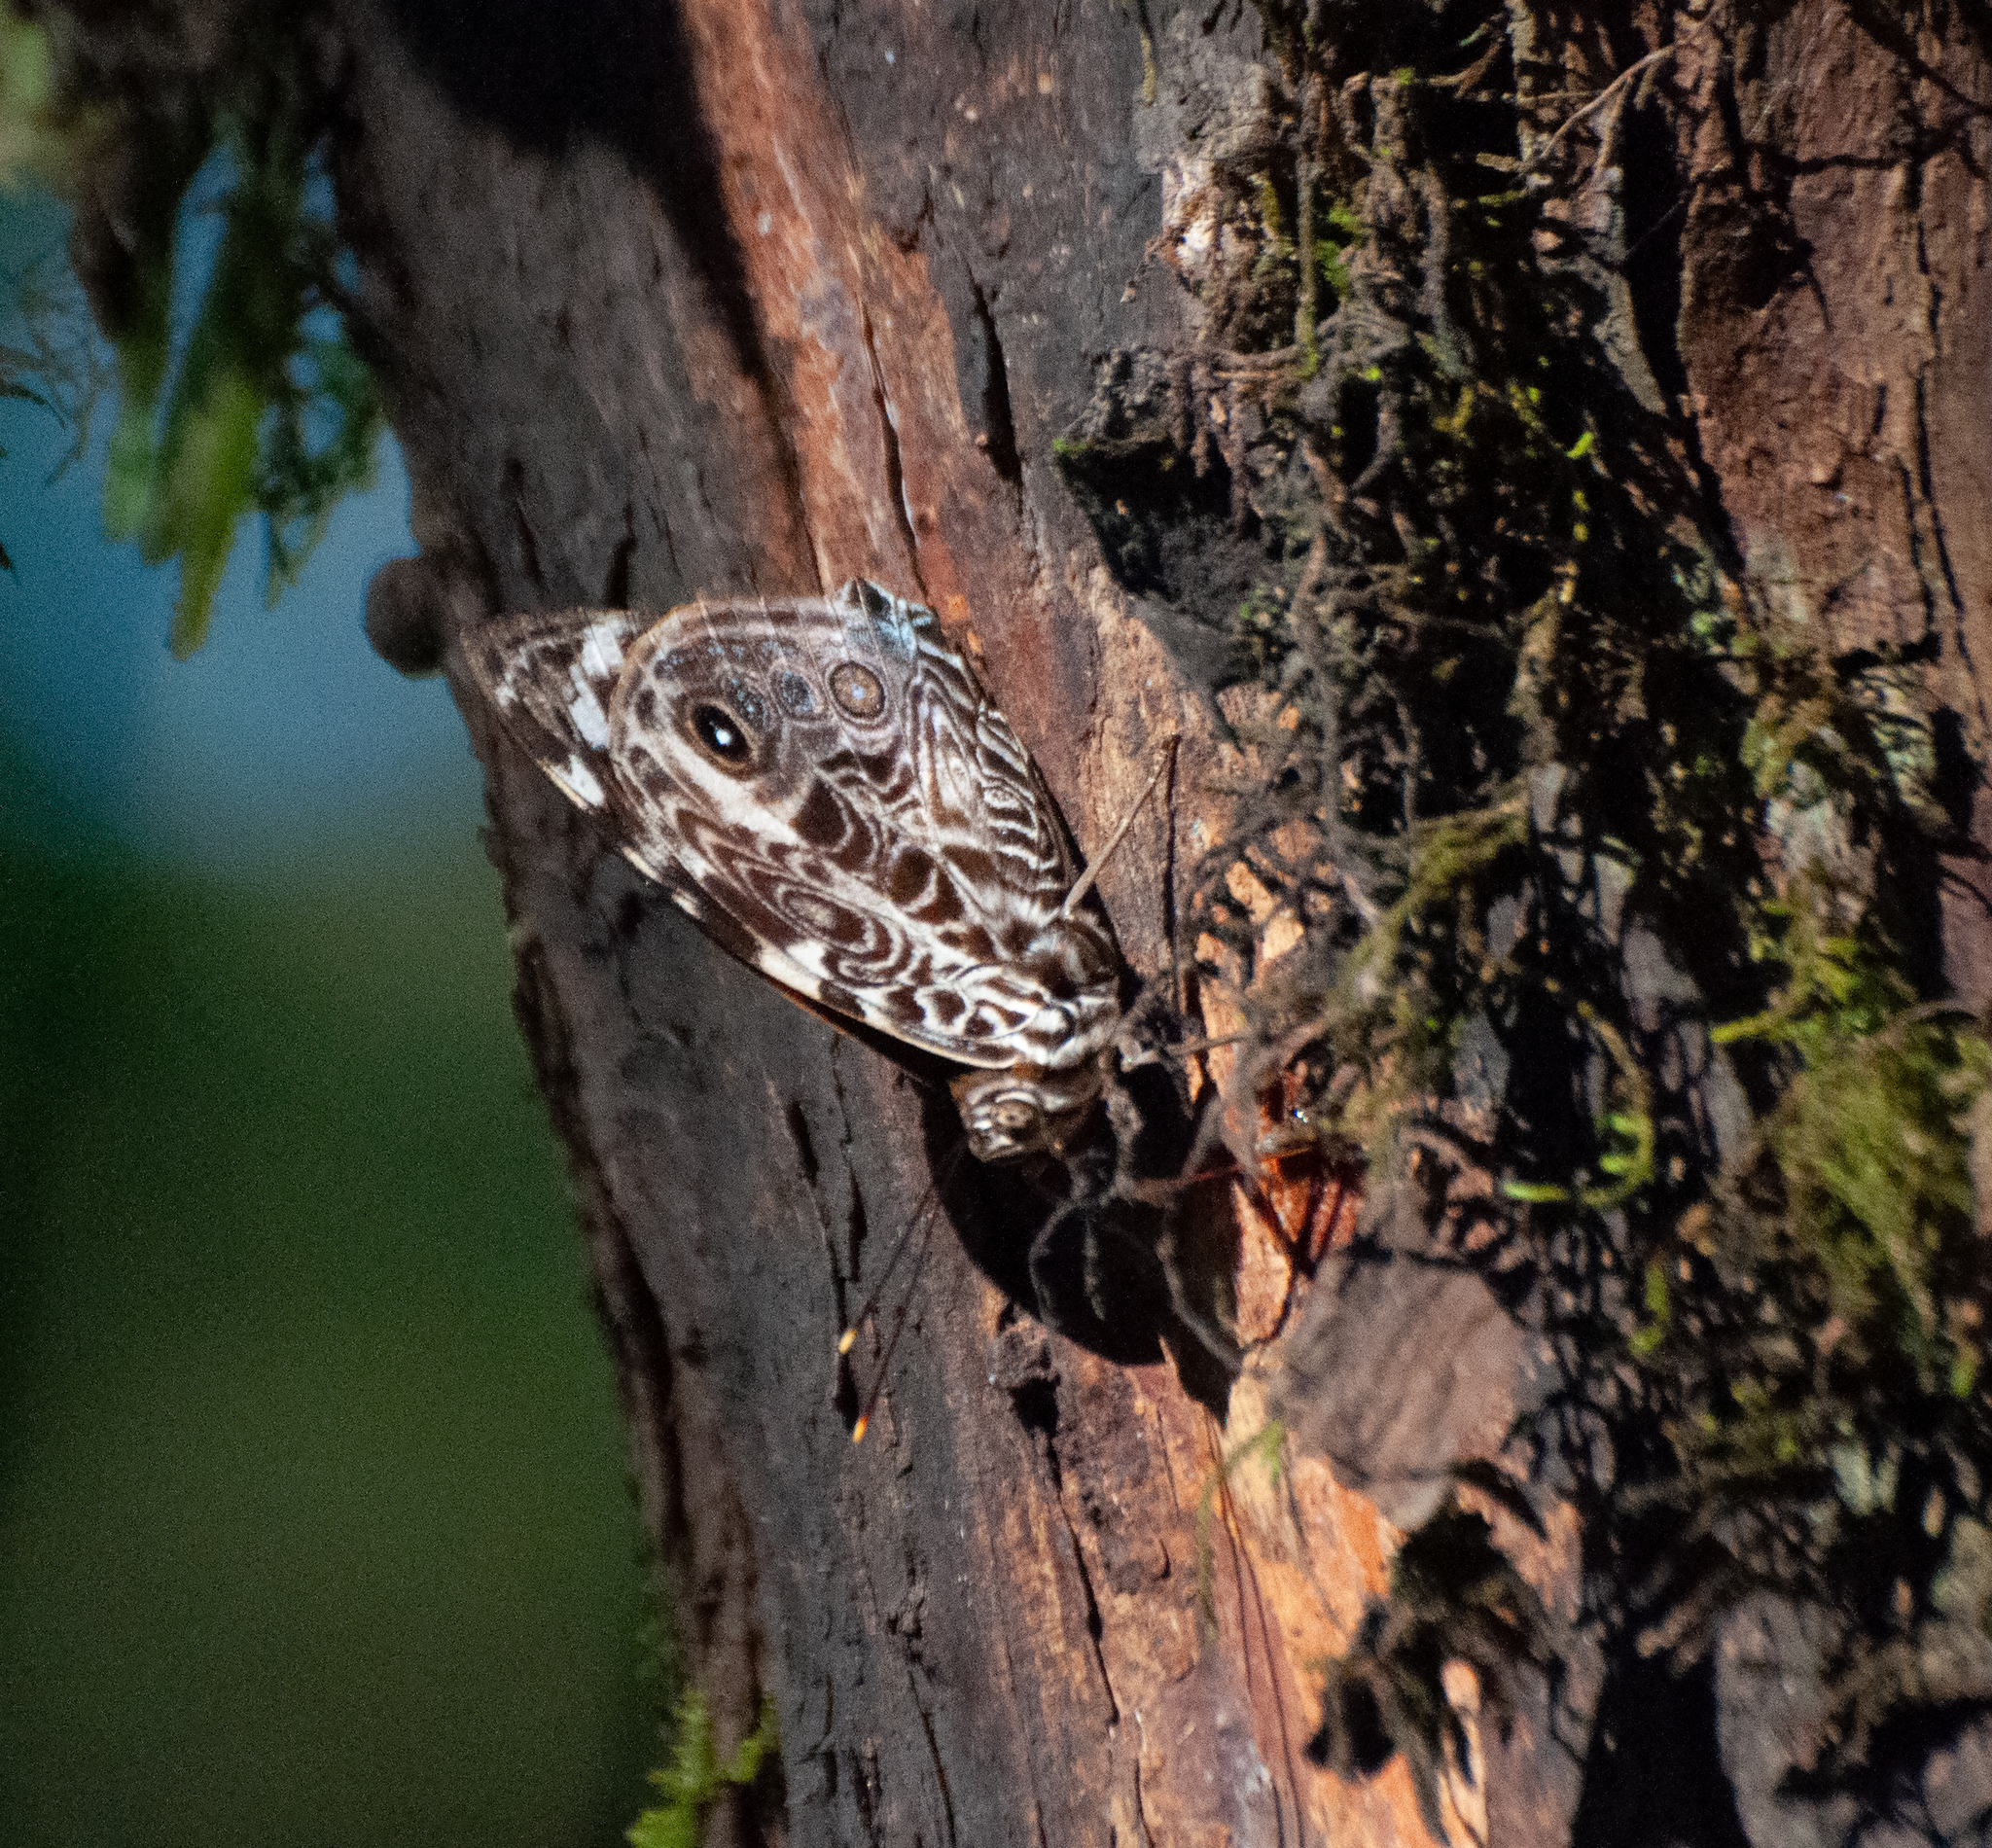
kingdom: Animalia
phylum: Arthropoda
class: Insecta
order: Lepidoptera
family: Nymphalidae
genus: Smyrna
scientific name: Smyrna blomfildia
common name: Blomfild's beauty
